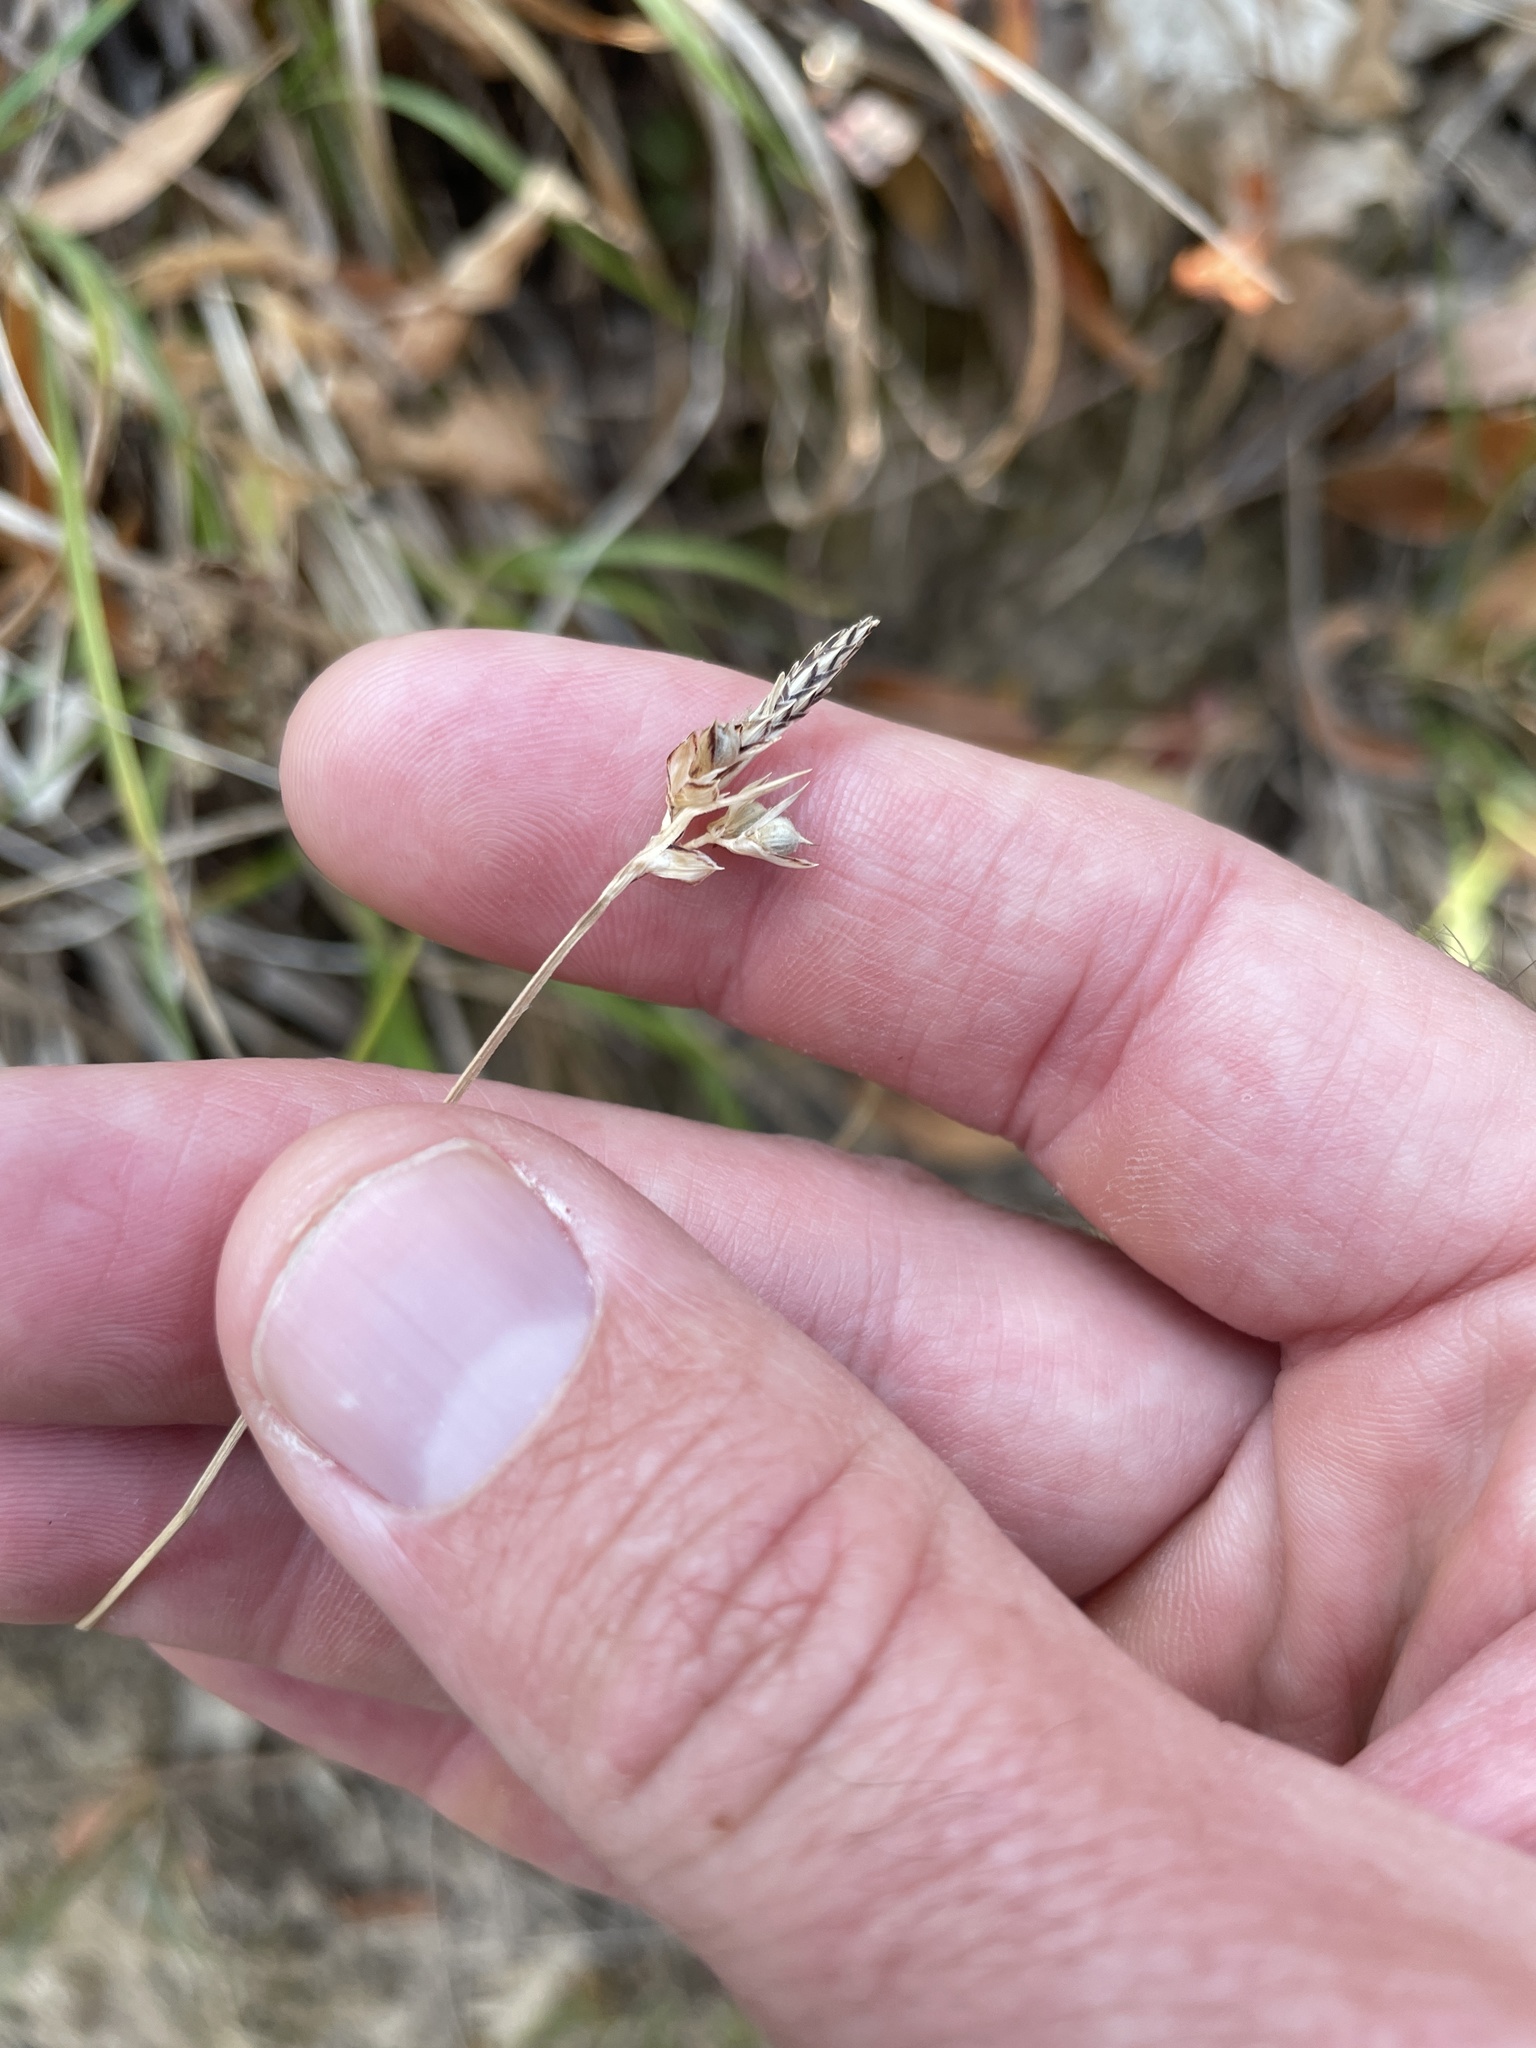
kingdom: Plantae
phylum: Tracheophyta
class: Liliopsida
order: Poales
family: Cyperaceae
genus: Carex
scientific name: Carex globosa
